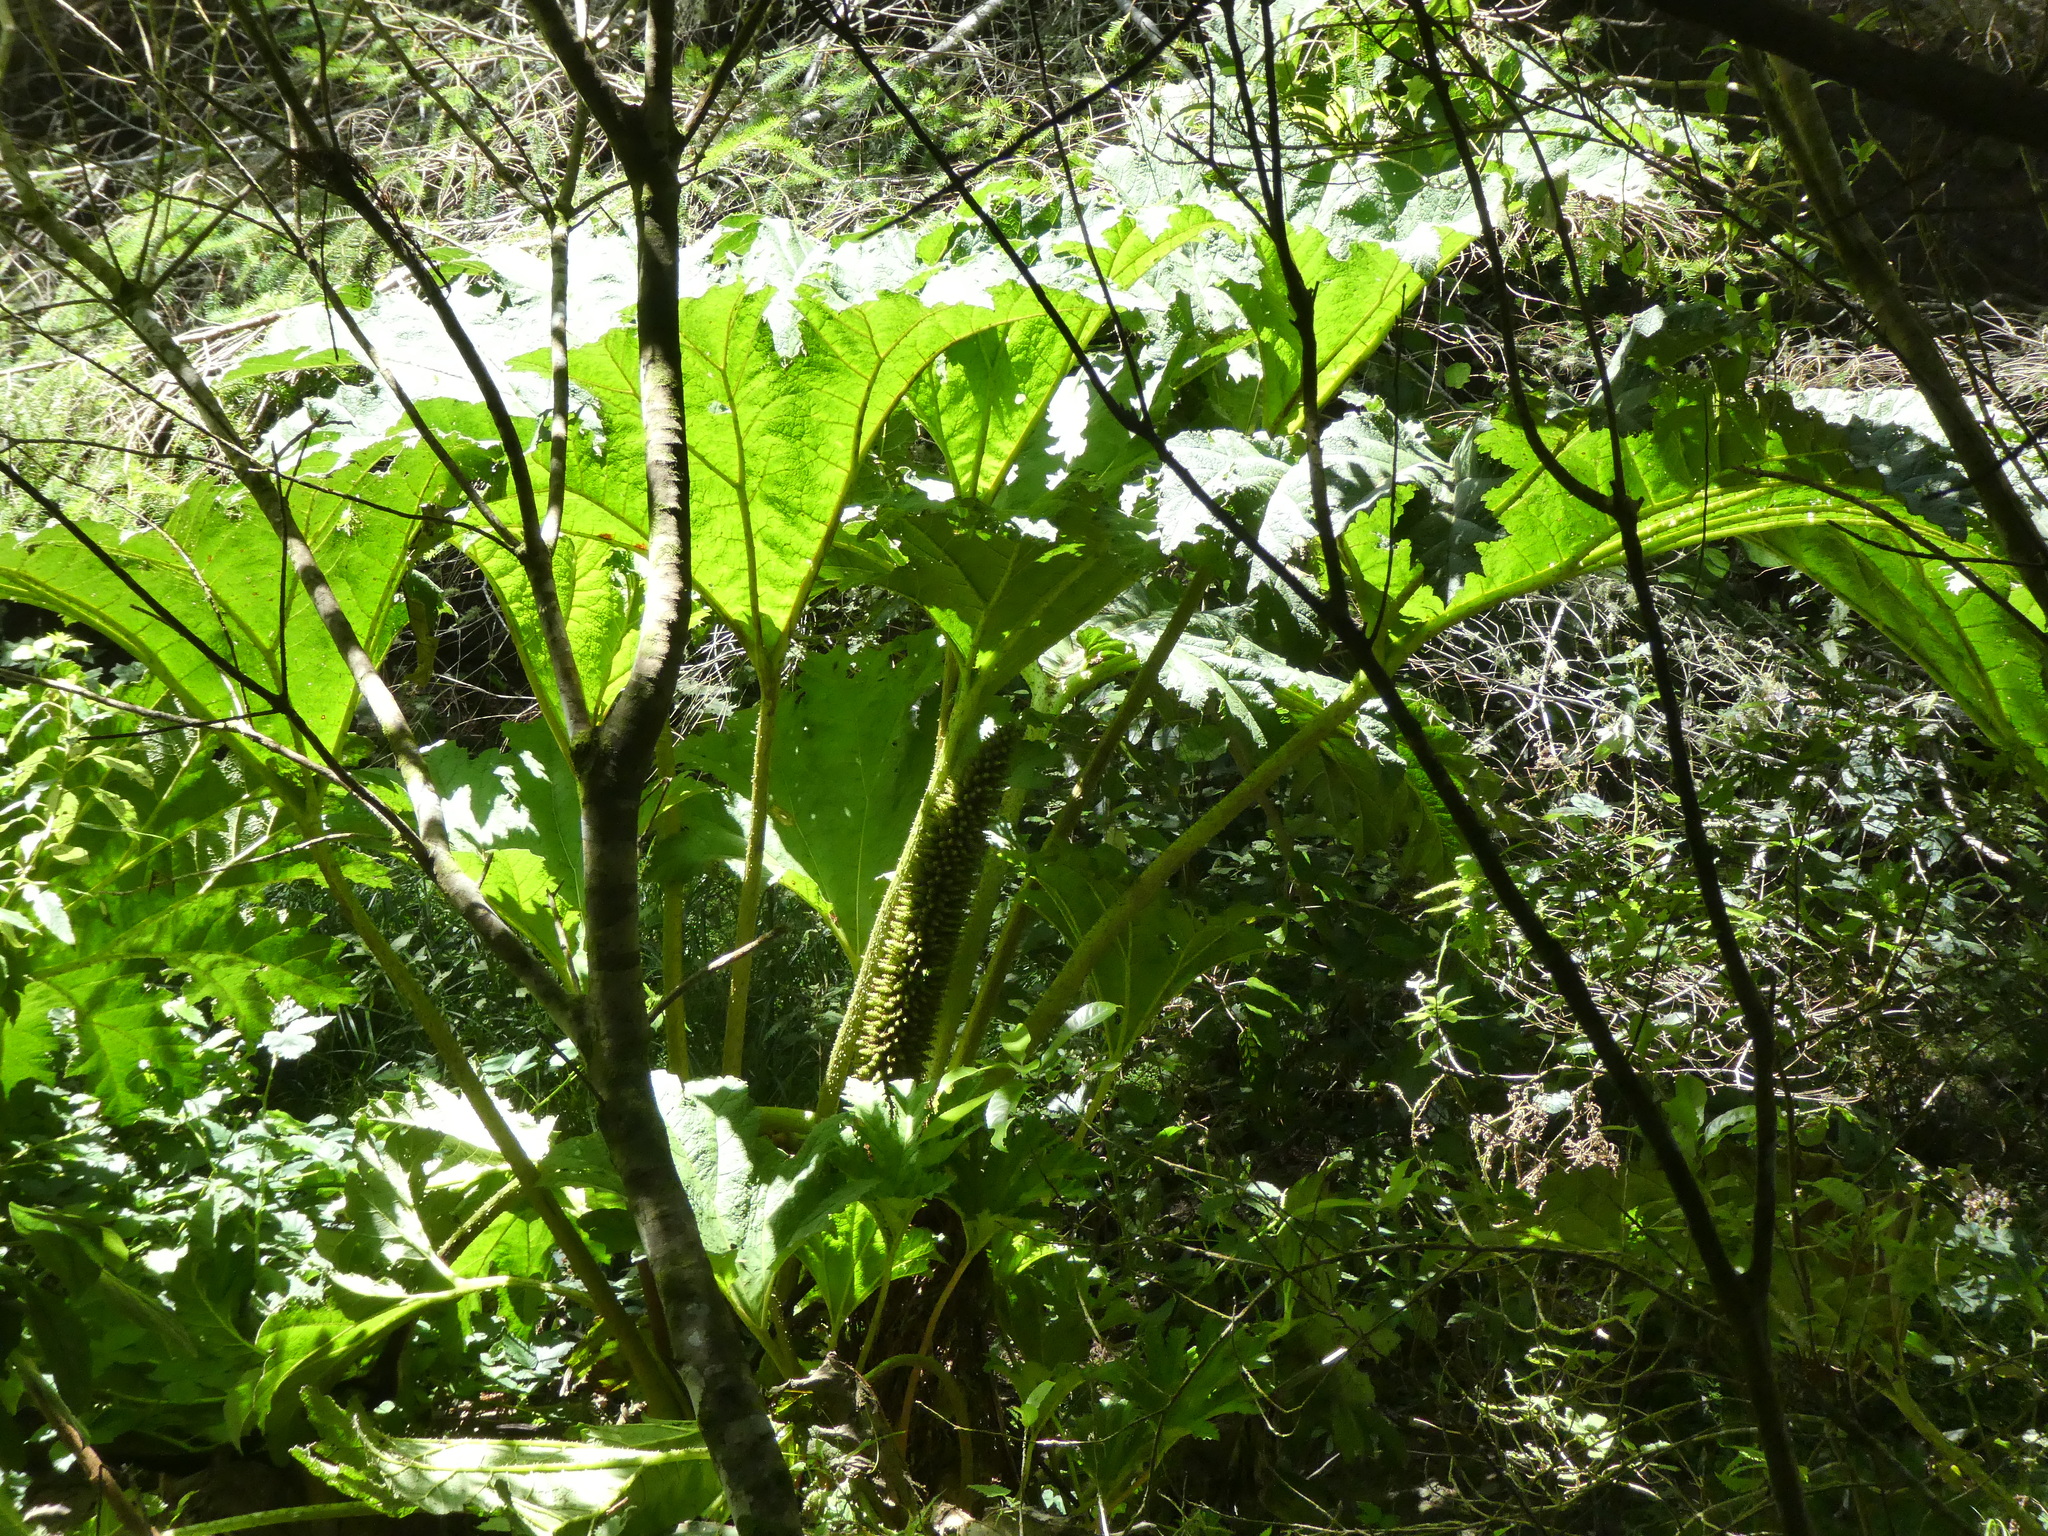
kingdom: Plantae
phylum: Tracheophyta
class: Magnoliopsida
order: Gunnerales
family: Gunneraceae
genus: Gunnera
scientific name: Gunnera tinctoria
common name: Giant-rhubarb
